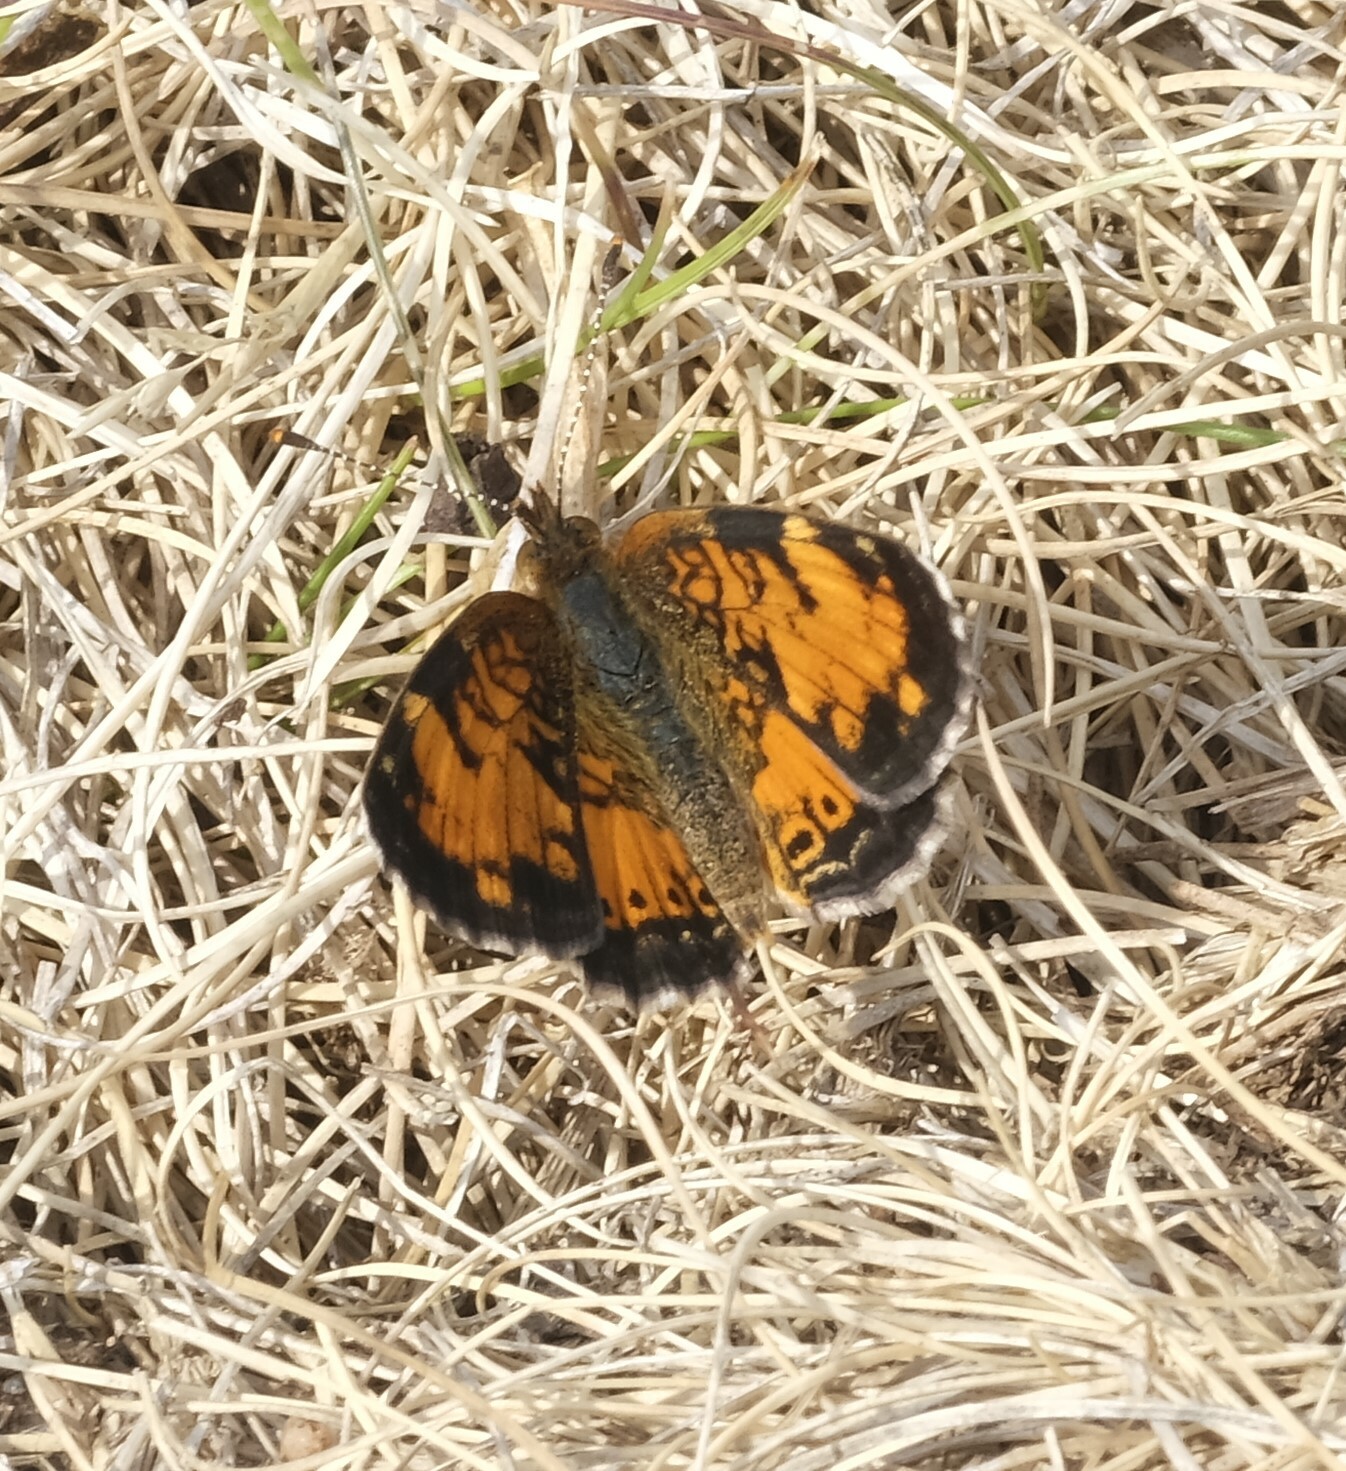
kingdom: Animalia
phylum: Arthropoda
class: Insecta
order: Lepidoptera
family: Nymphalidae
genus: Phyciodes
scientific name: Phyciodes tharos
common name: Pearl crescent
